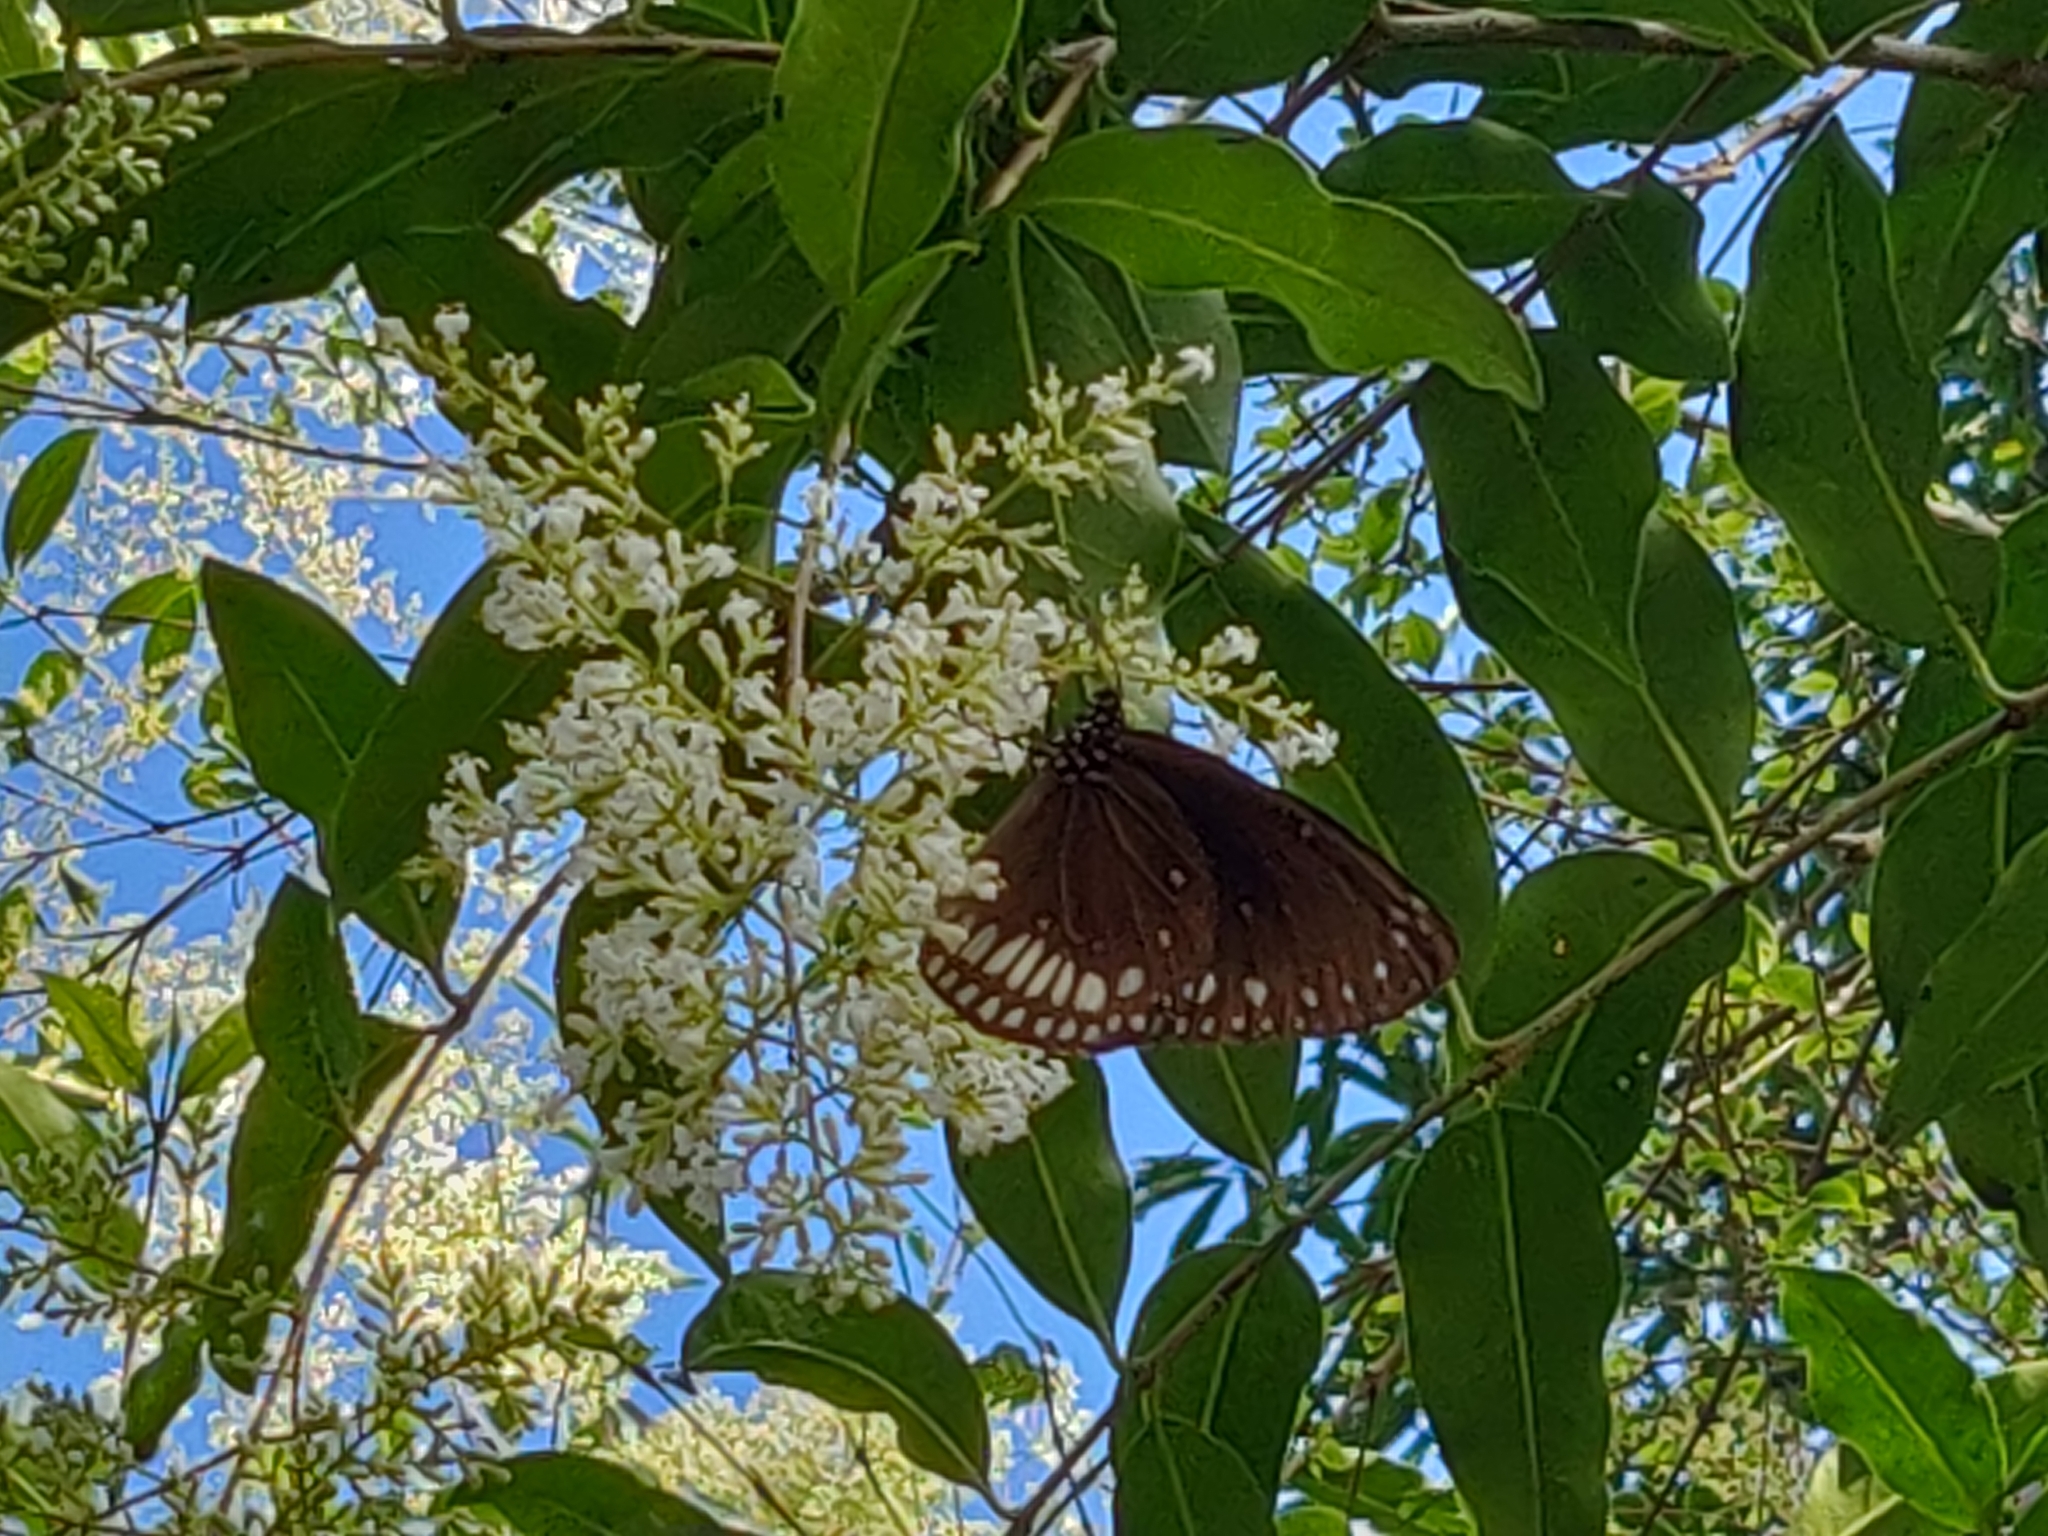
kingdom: Animalia
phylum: Arthropoda
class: Insecta
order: Lepidoptera
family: Nymphalidae
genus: Euploea
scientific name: Euploea klugii
